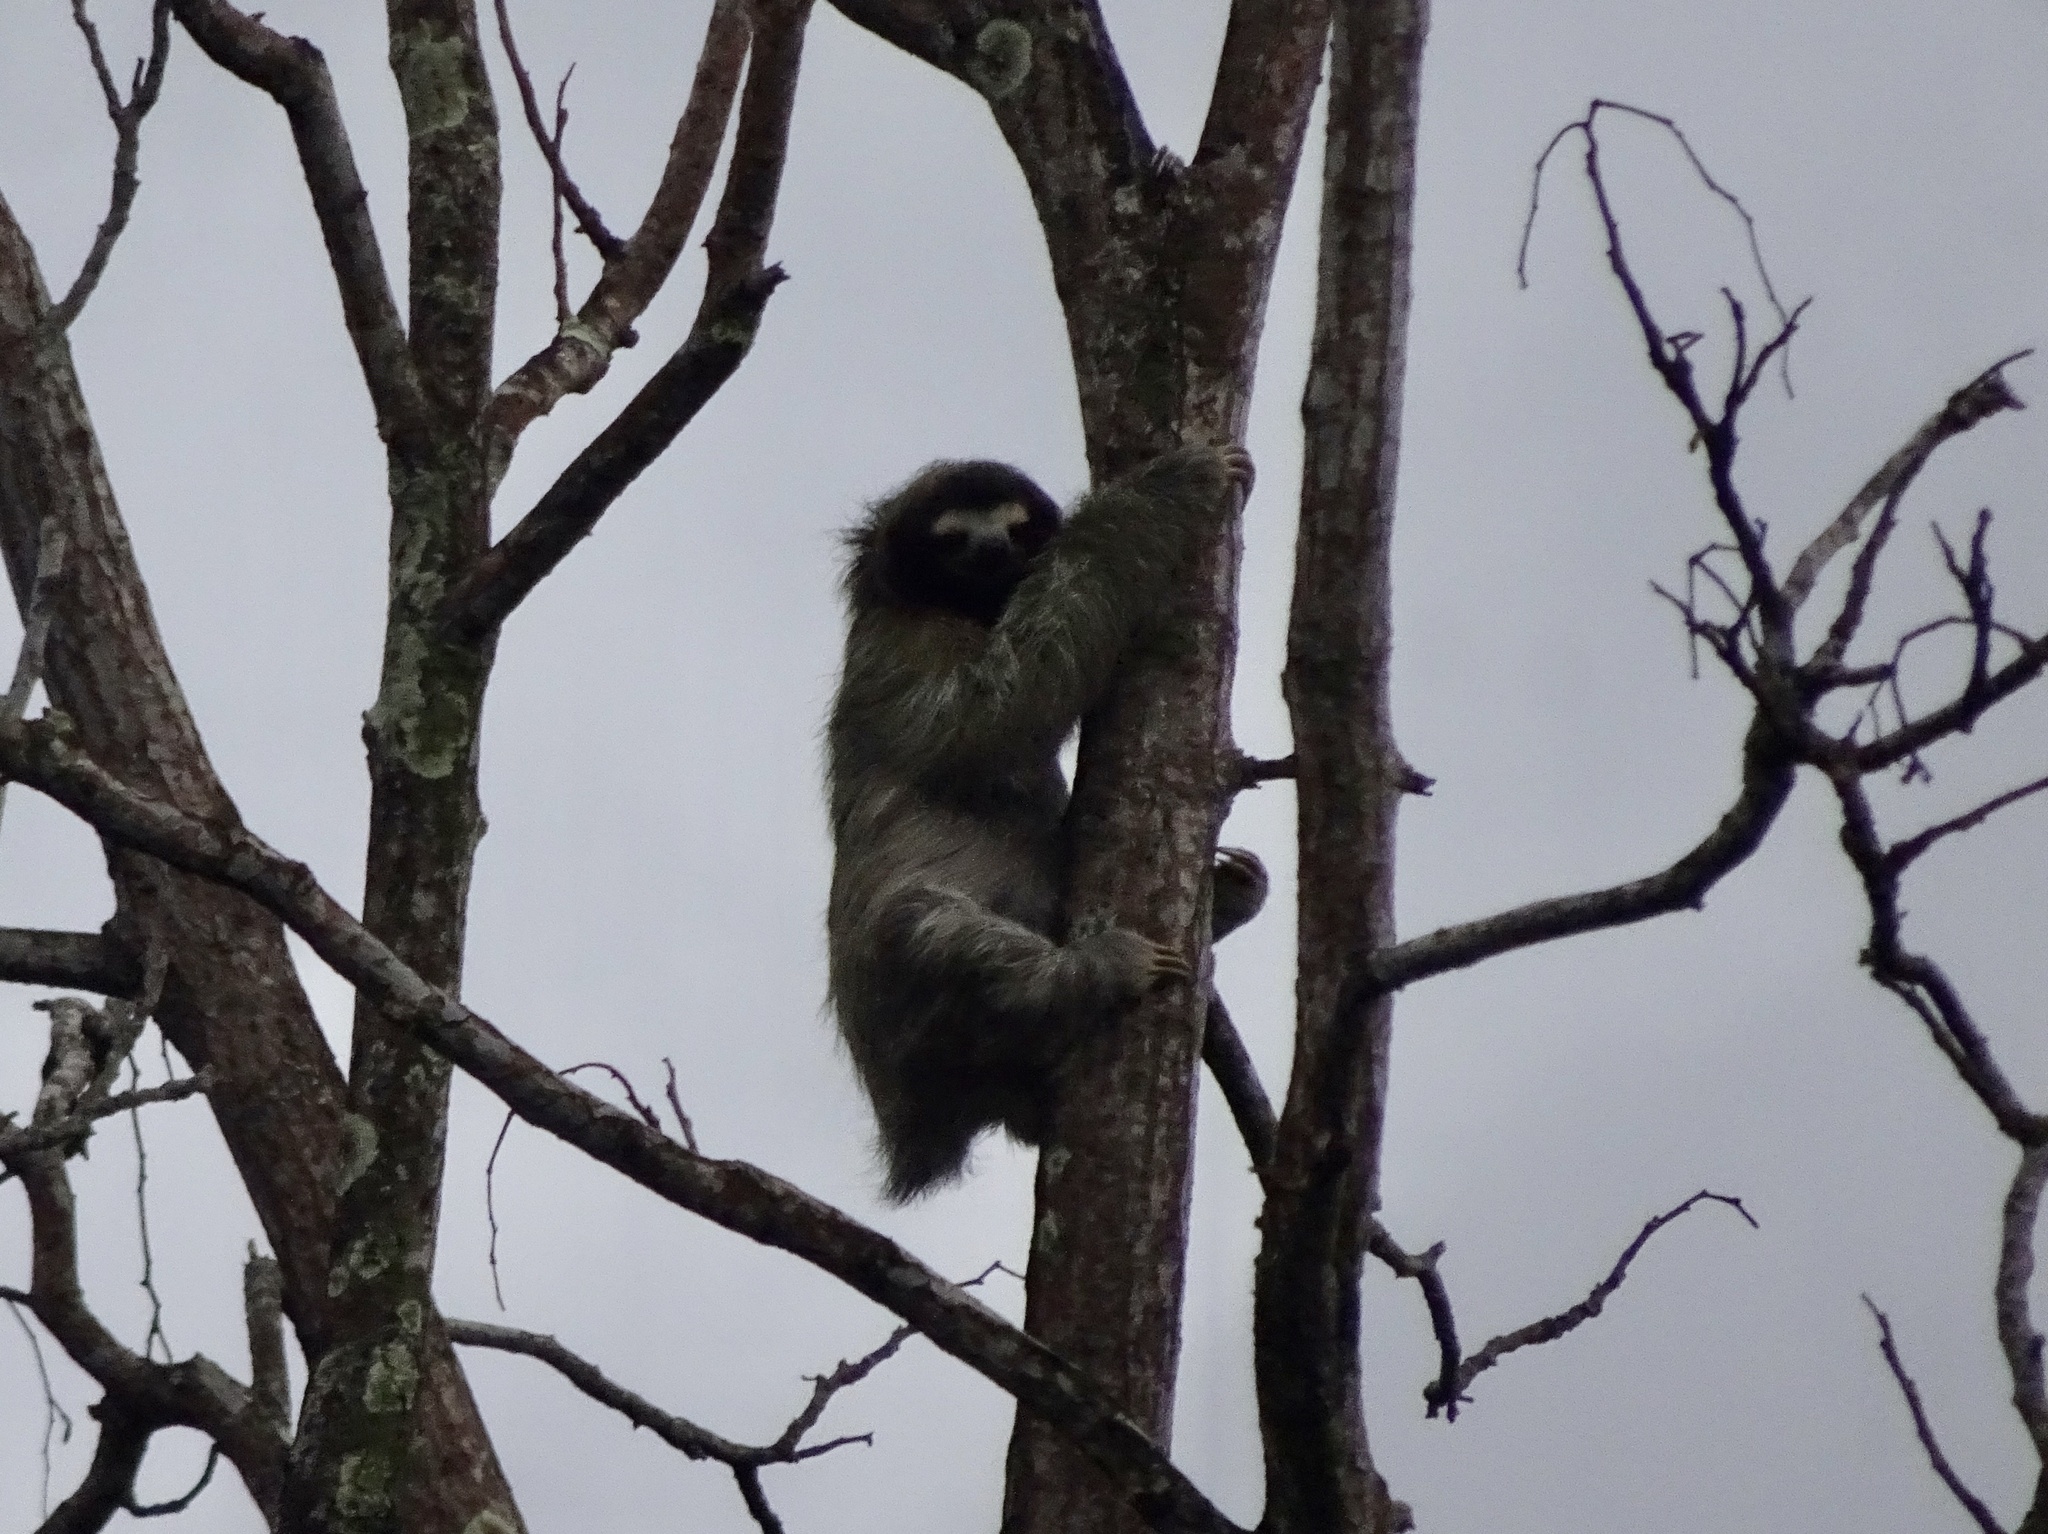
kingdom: Animalia
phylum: Chordata
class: Mammalia
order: Pilosa
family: Bradypodidae
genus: Bradypus
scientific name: Bradypus variegatus
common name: Brown-throated three-toed sloth
